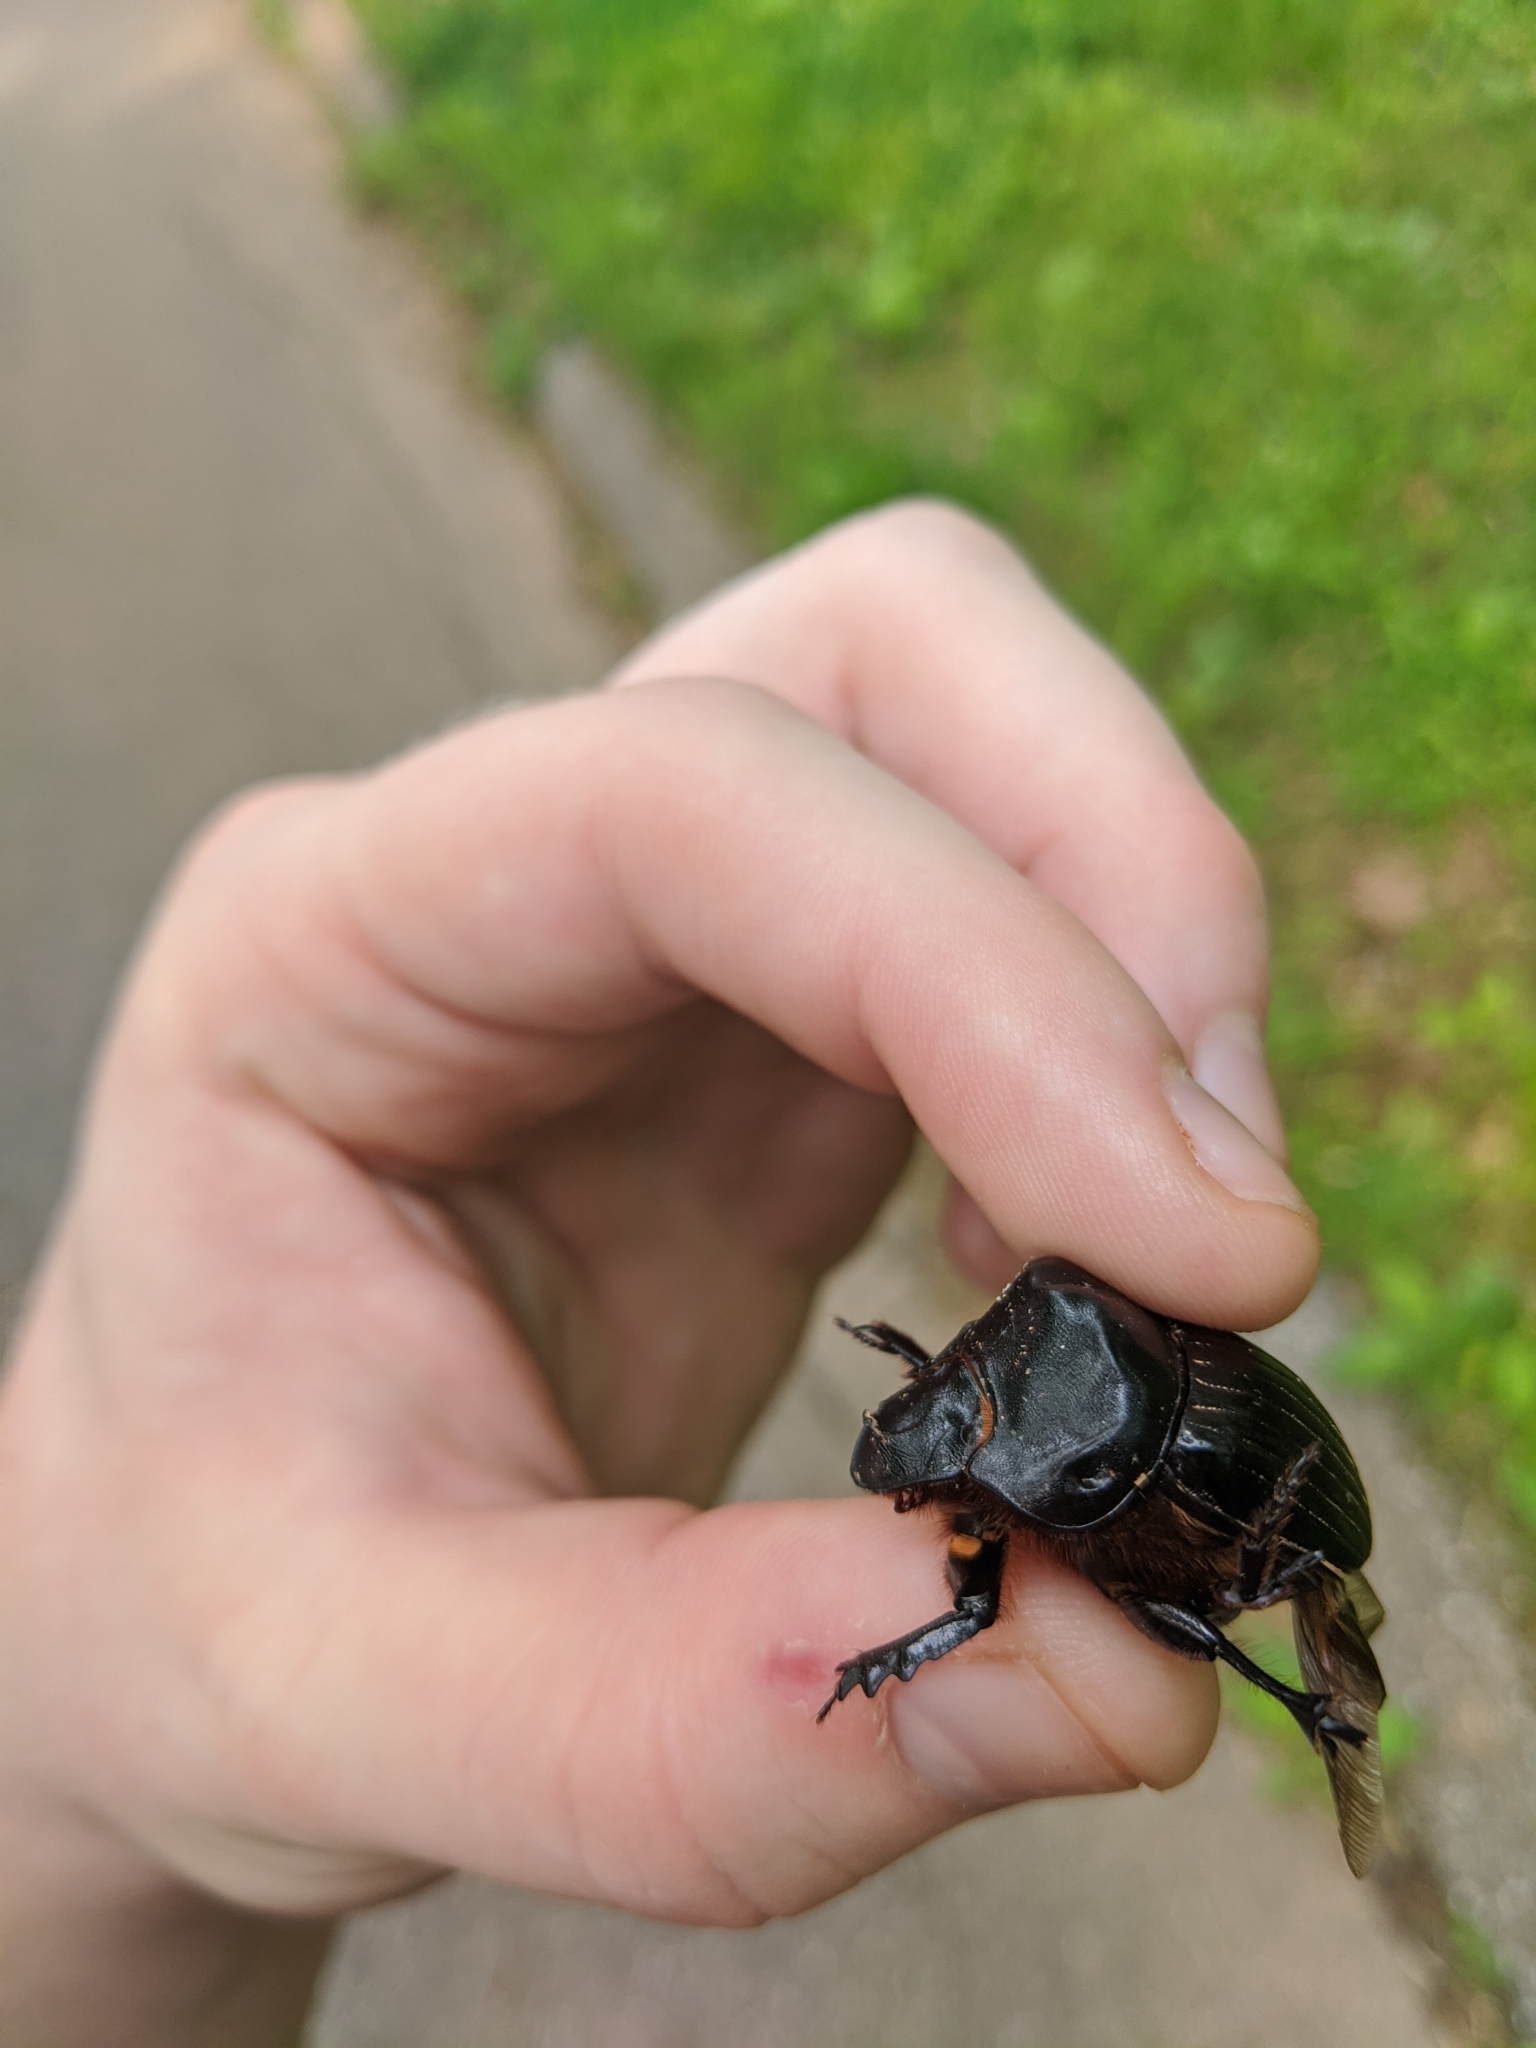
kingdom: Animalia
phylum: Arthropoda
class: Insecta
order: Coleoptera
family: Scarabaeidae
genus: Dichotomius
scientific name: Dichotomius carolinus
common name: Carolina copris
